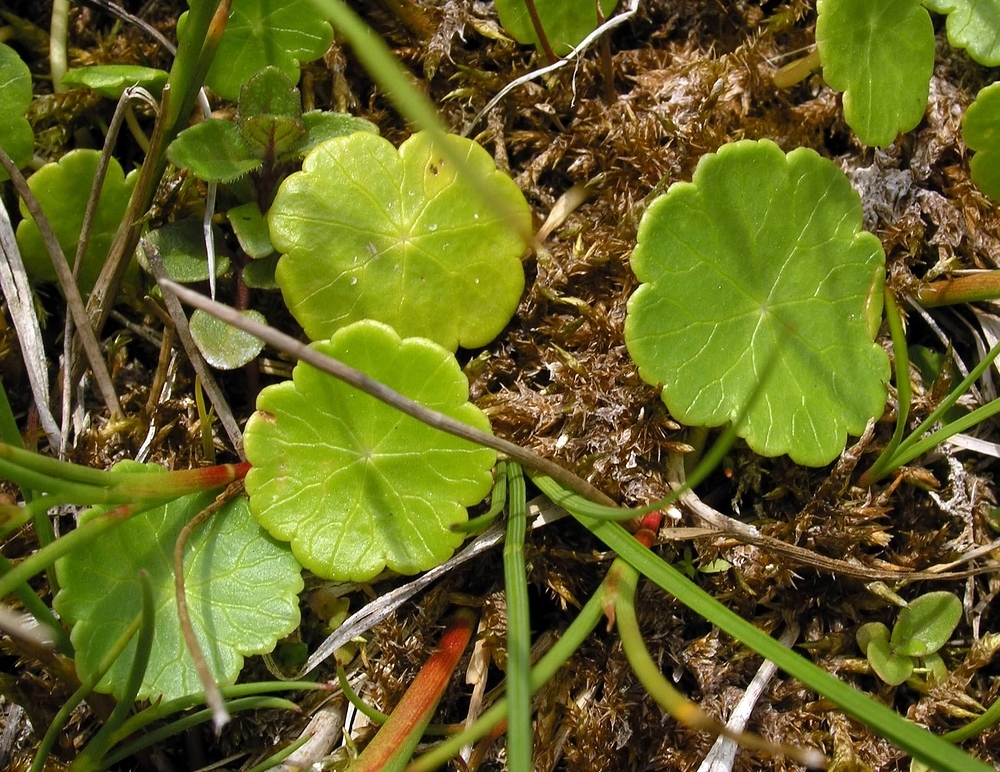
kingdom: Plantae
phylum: Tracheophyta
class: Magnoliopsida
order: Apiales
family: Araliaceae
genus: Hydrocotyle
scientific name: Hydrocotyle vulgaris
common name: Marsh pennywort
